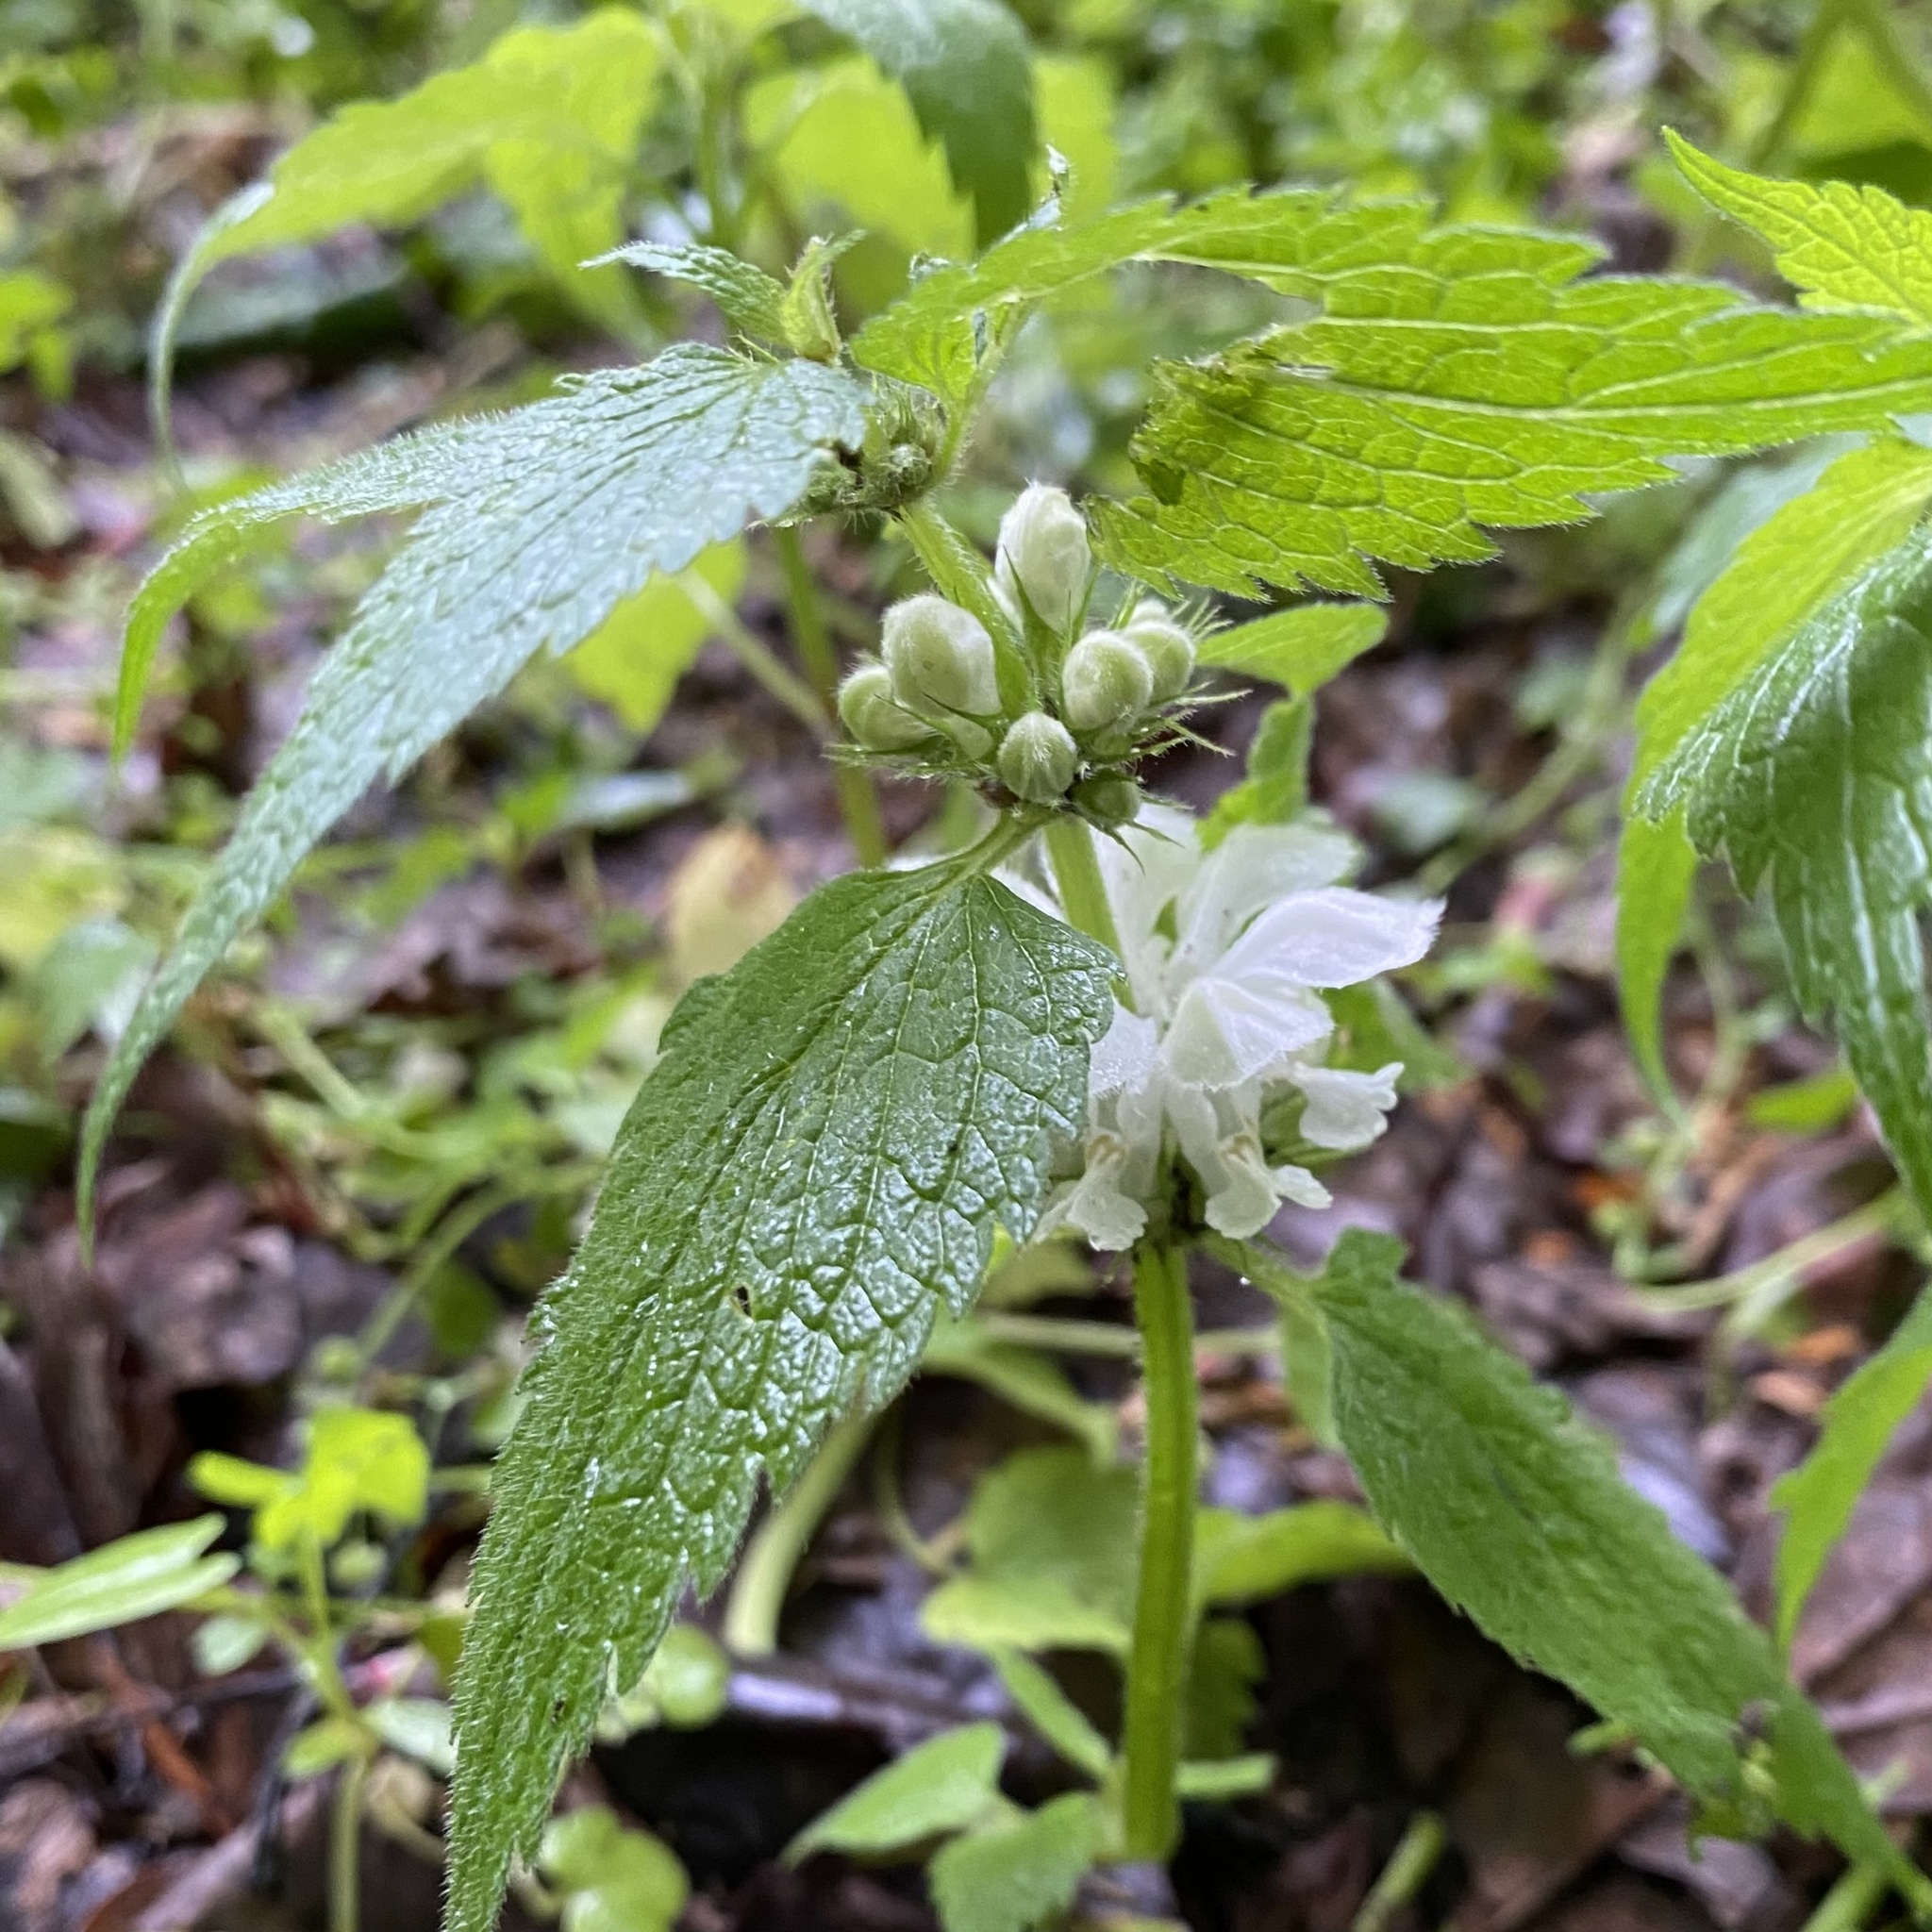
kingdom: Plantae
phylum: Tracheophyta
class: Magnoliopsida
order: Lamiales
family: Lamiaceae
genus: Lamium
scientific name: Lamium album
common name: White dead-nettle
